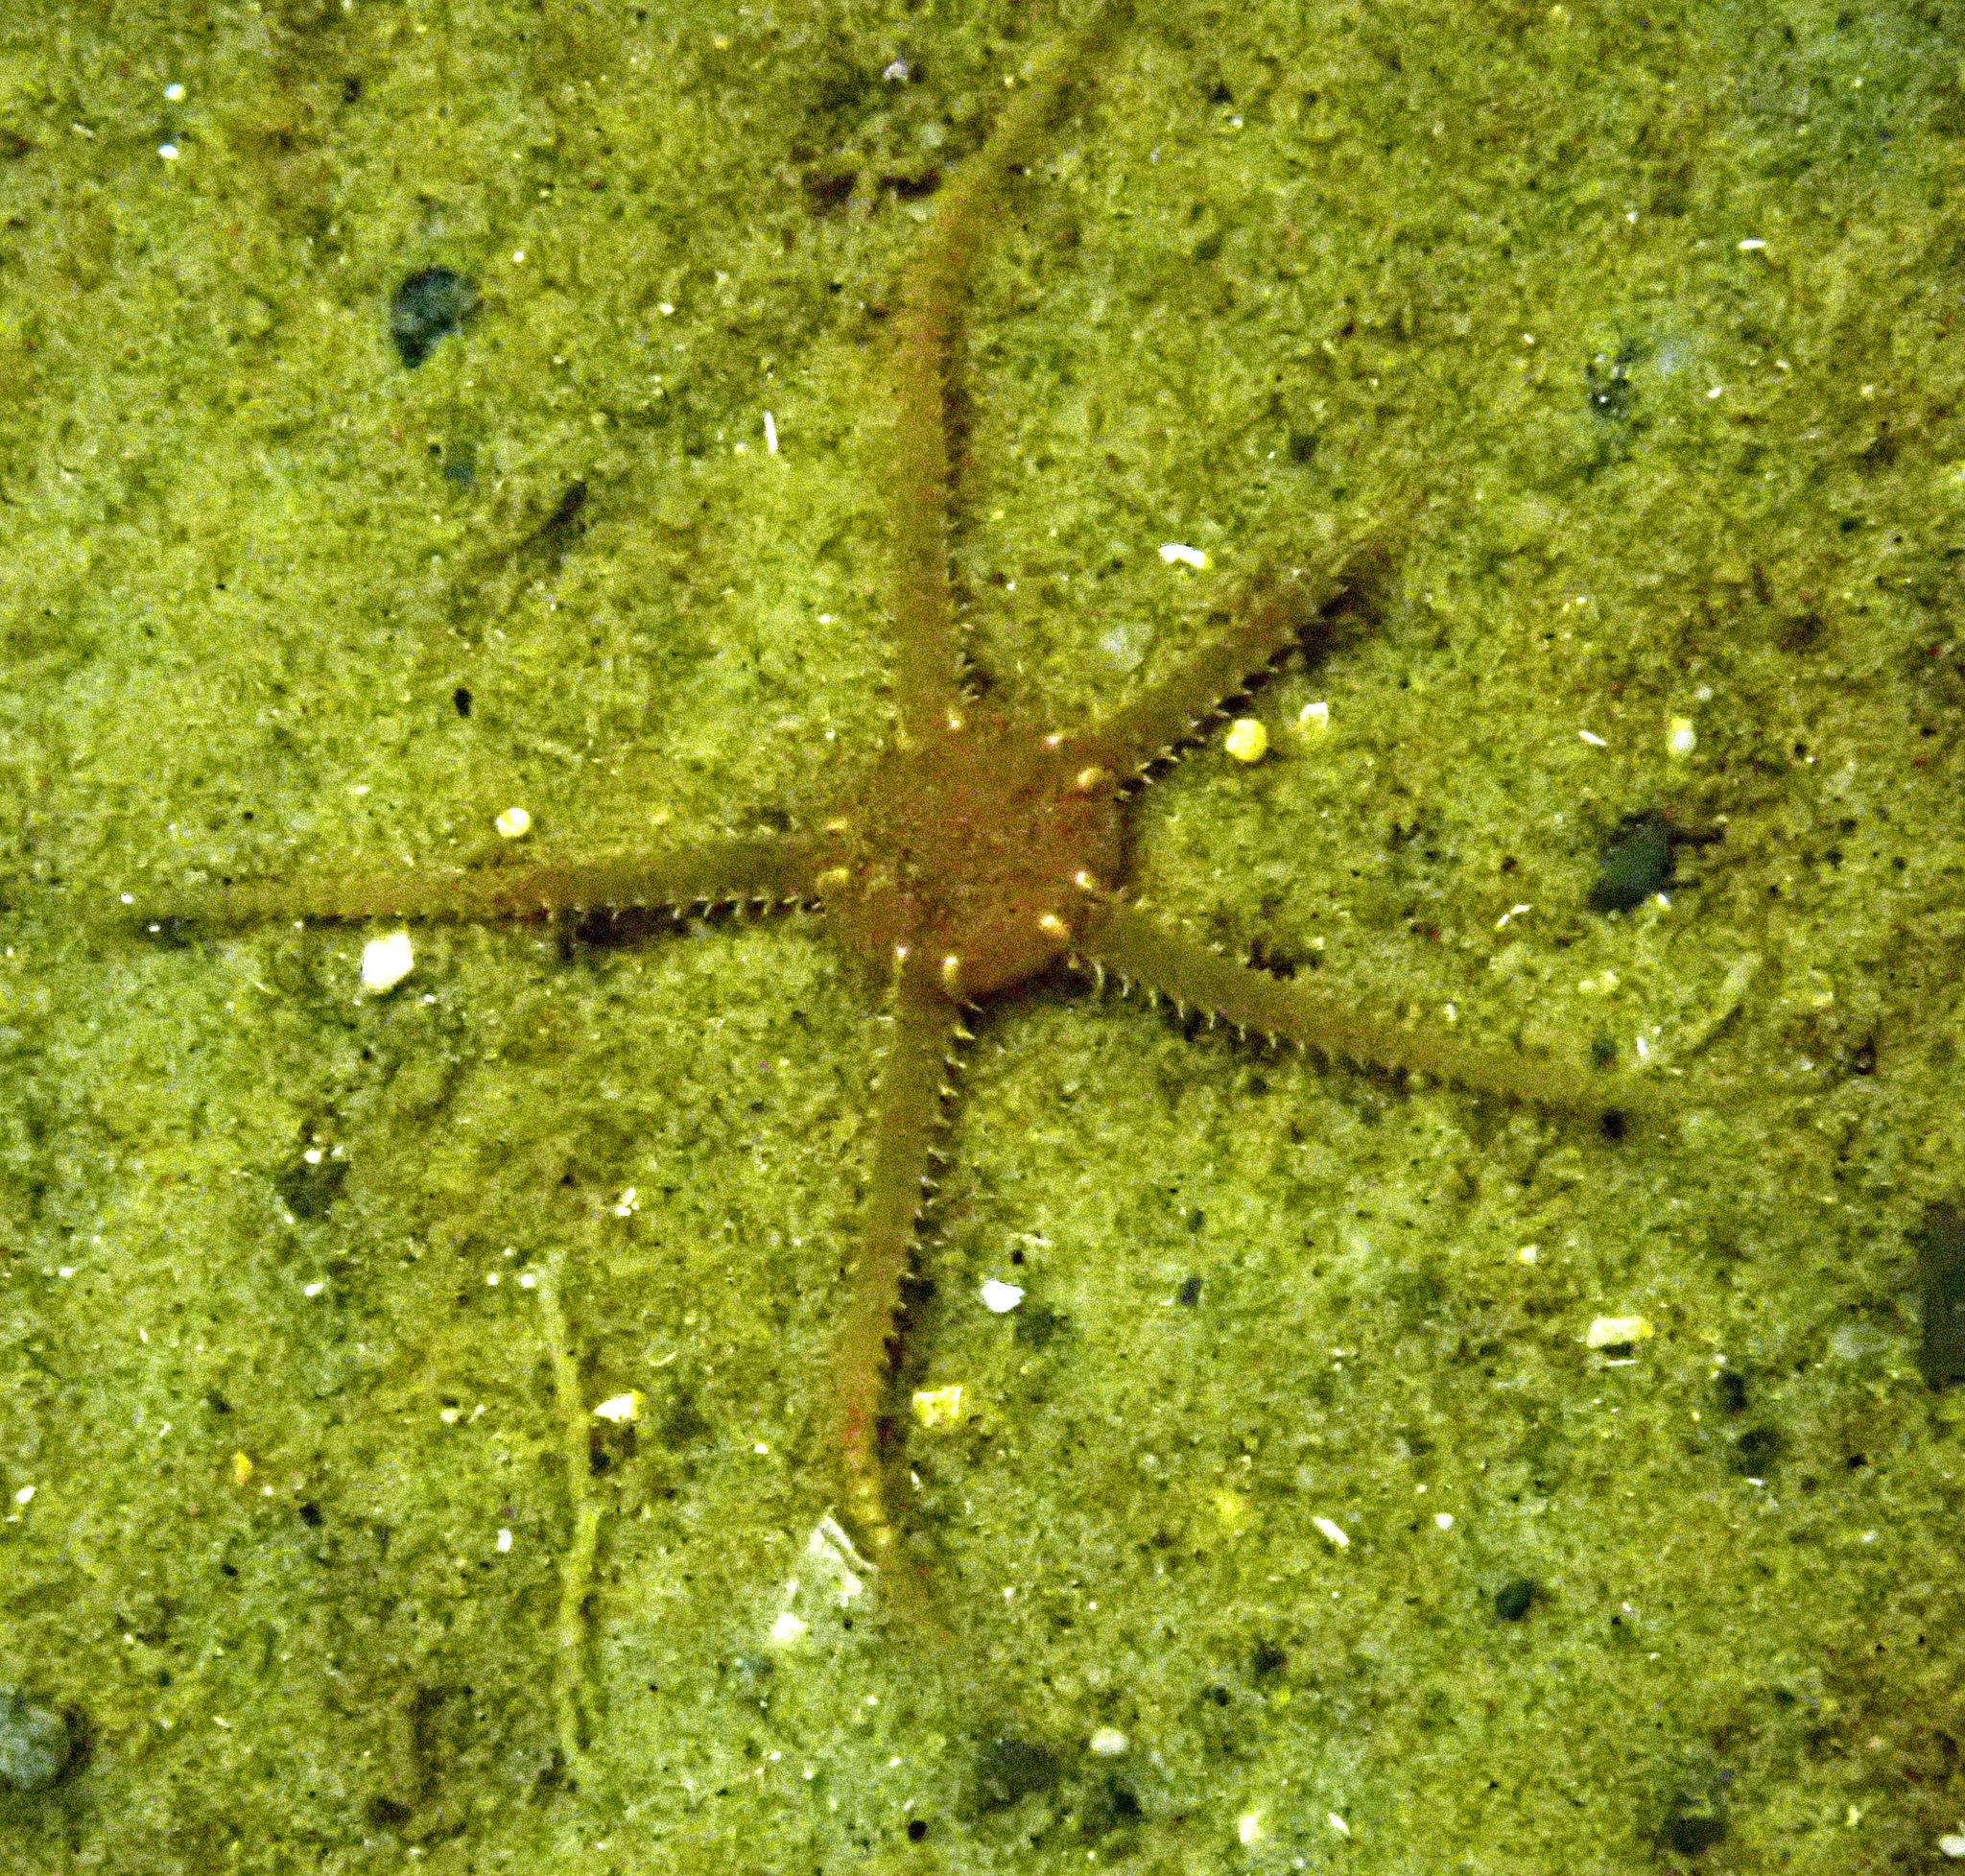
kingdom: Animalia
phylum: Echinodermata
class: Ophiuroidea
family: Ophiuridae
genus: Ophiura
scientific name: Ophiura albida
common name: Serpent's table brittlestar
